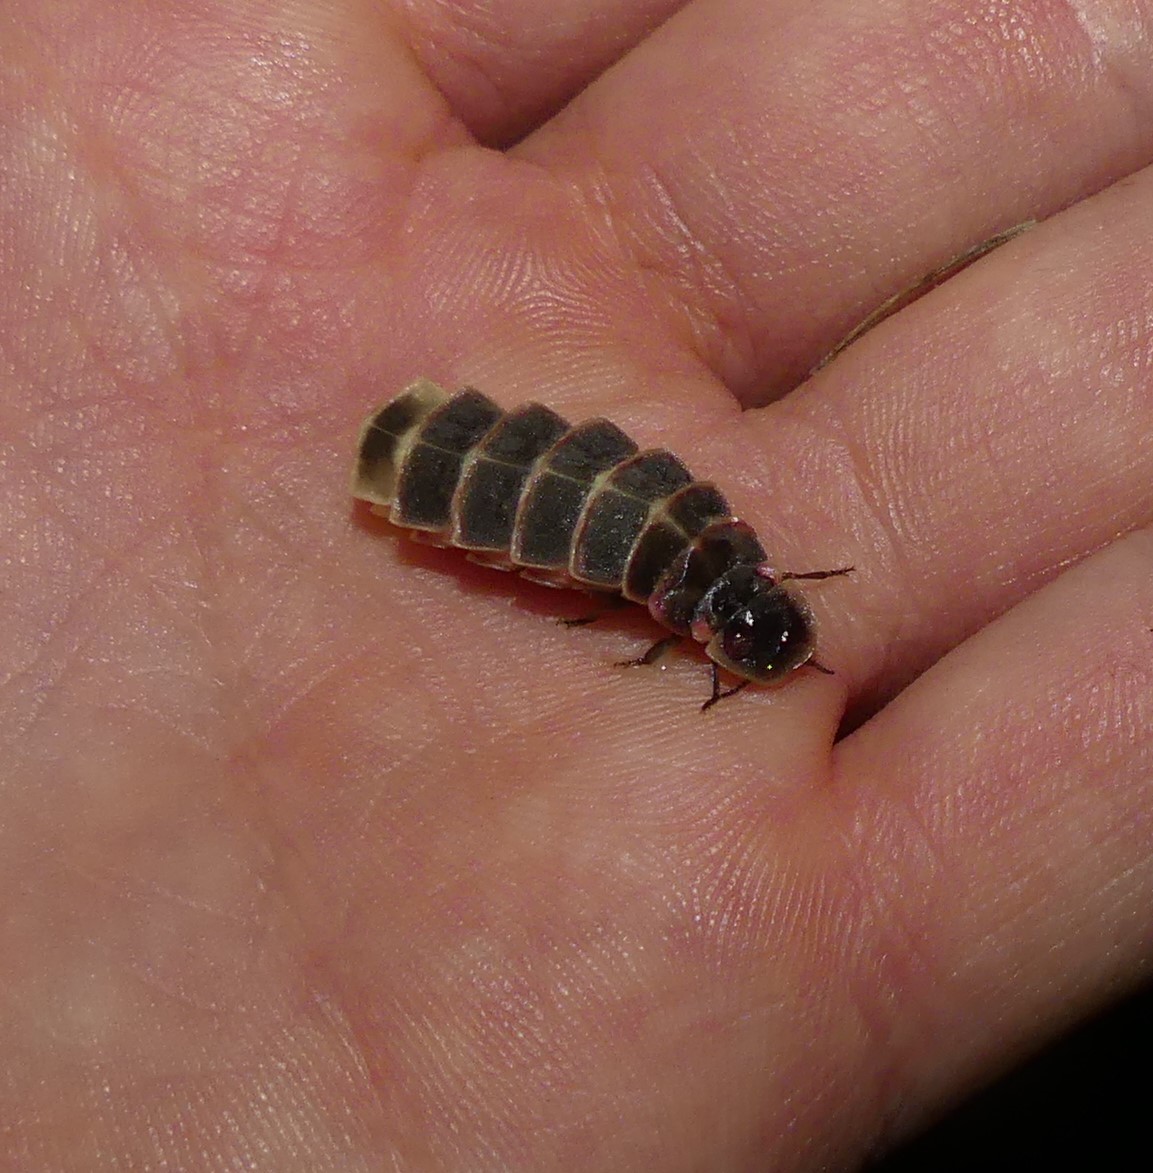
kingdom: Animalia
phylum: Arthropoda
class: Insecta
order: Coleoptera
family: Lampyridae
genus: Lampyris
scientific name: Lampyris noctiluca
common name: Glow-worm
